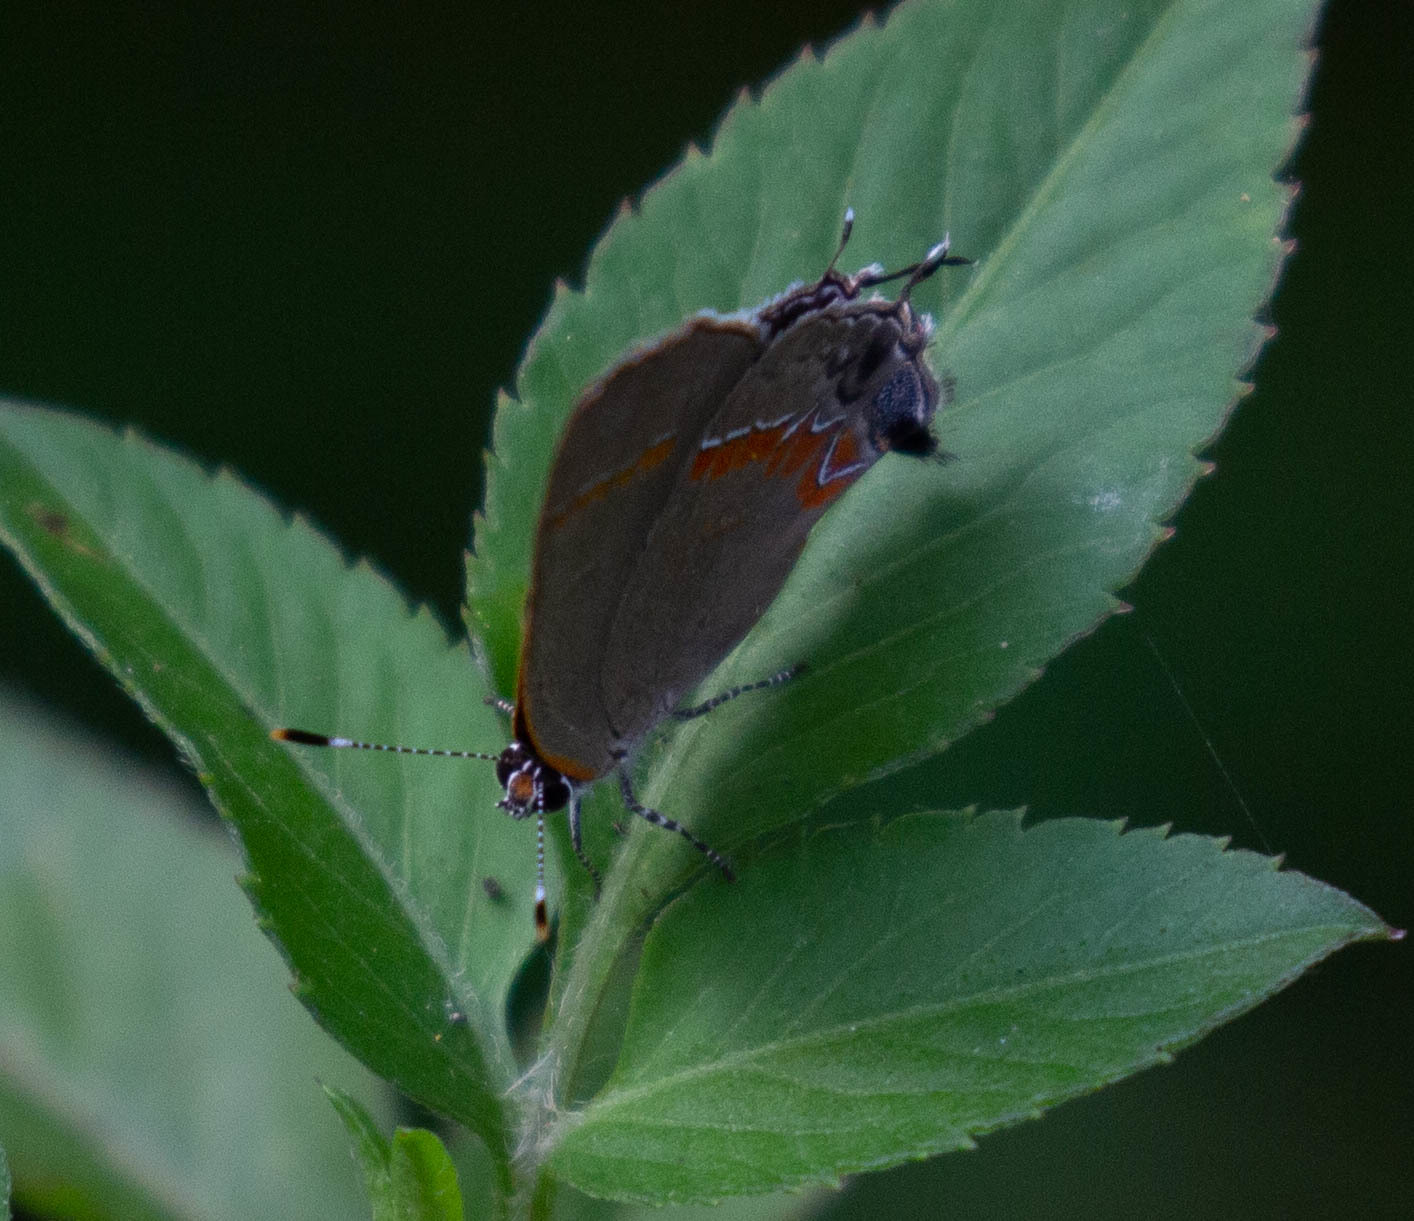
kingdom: Animalia
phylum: Arthropoda
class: Insecta
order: Lepidoptera
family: Lycaenidae
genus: Calycopis
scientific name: Calycopis cecrops
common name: Red-banded hairstreak
